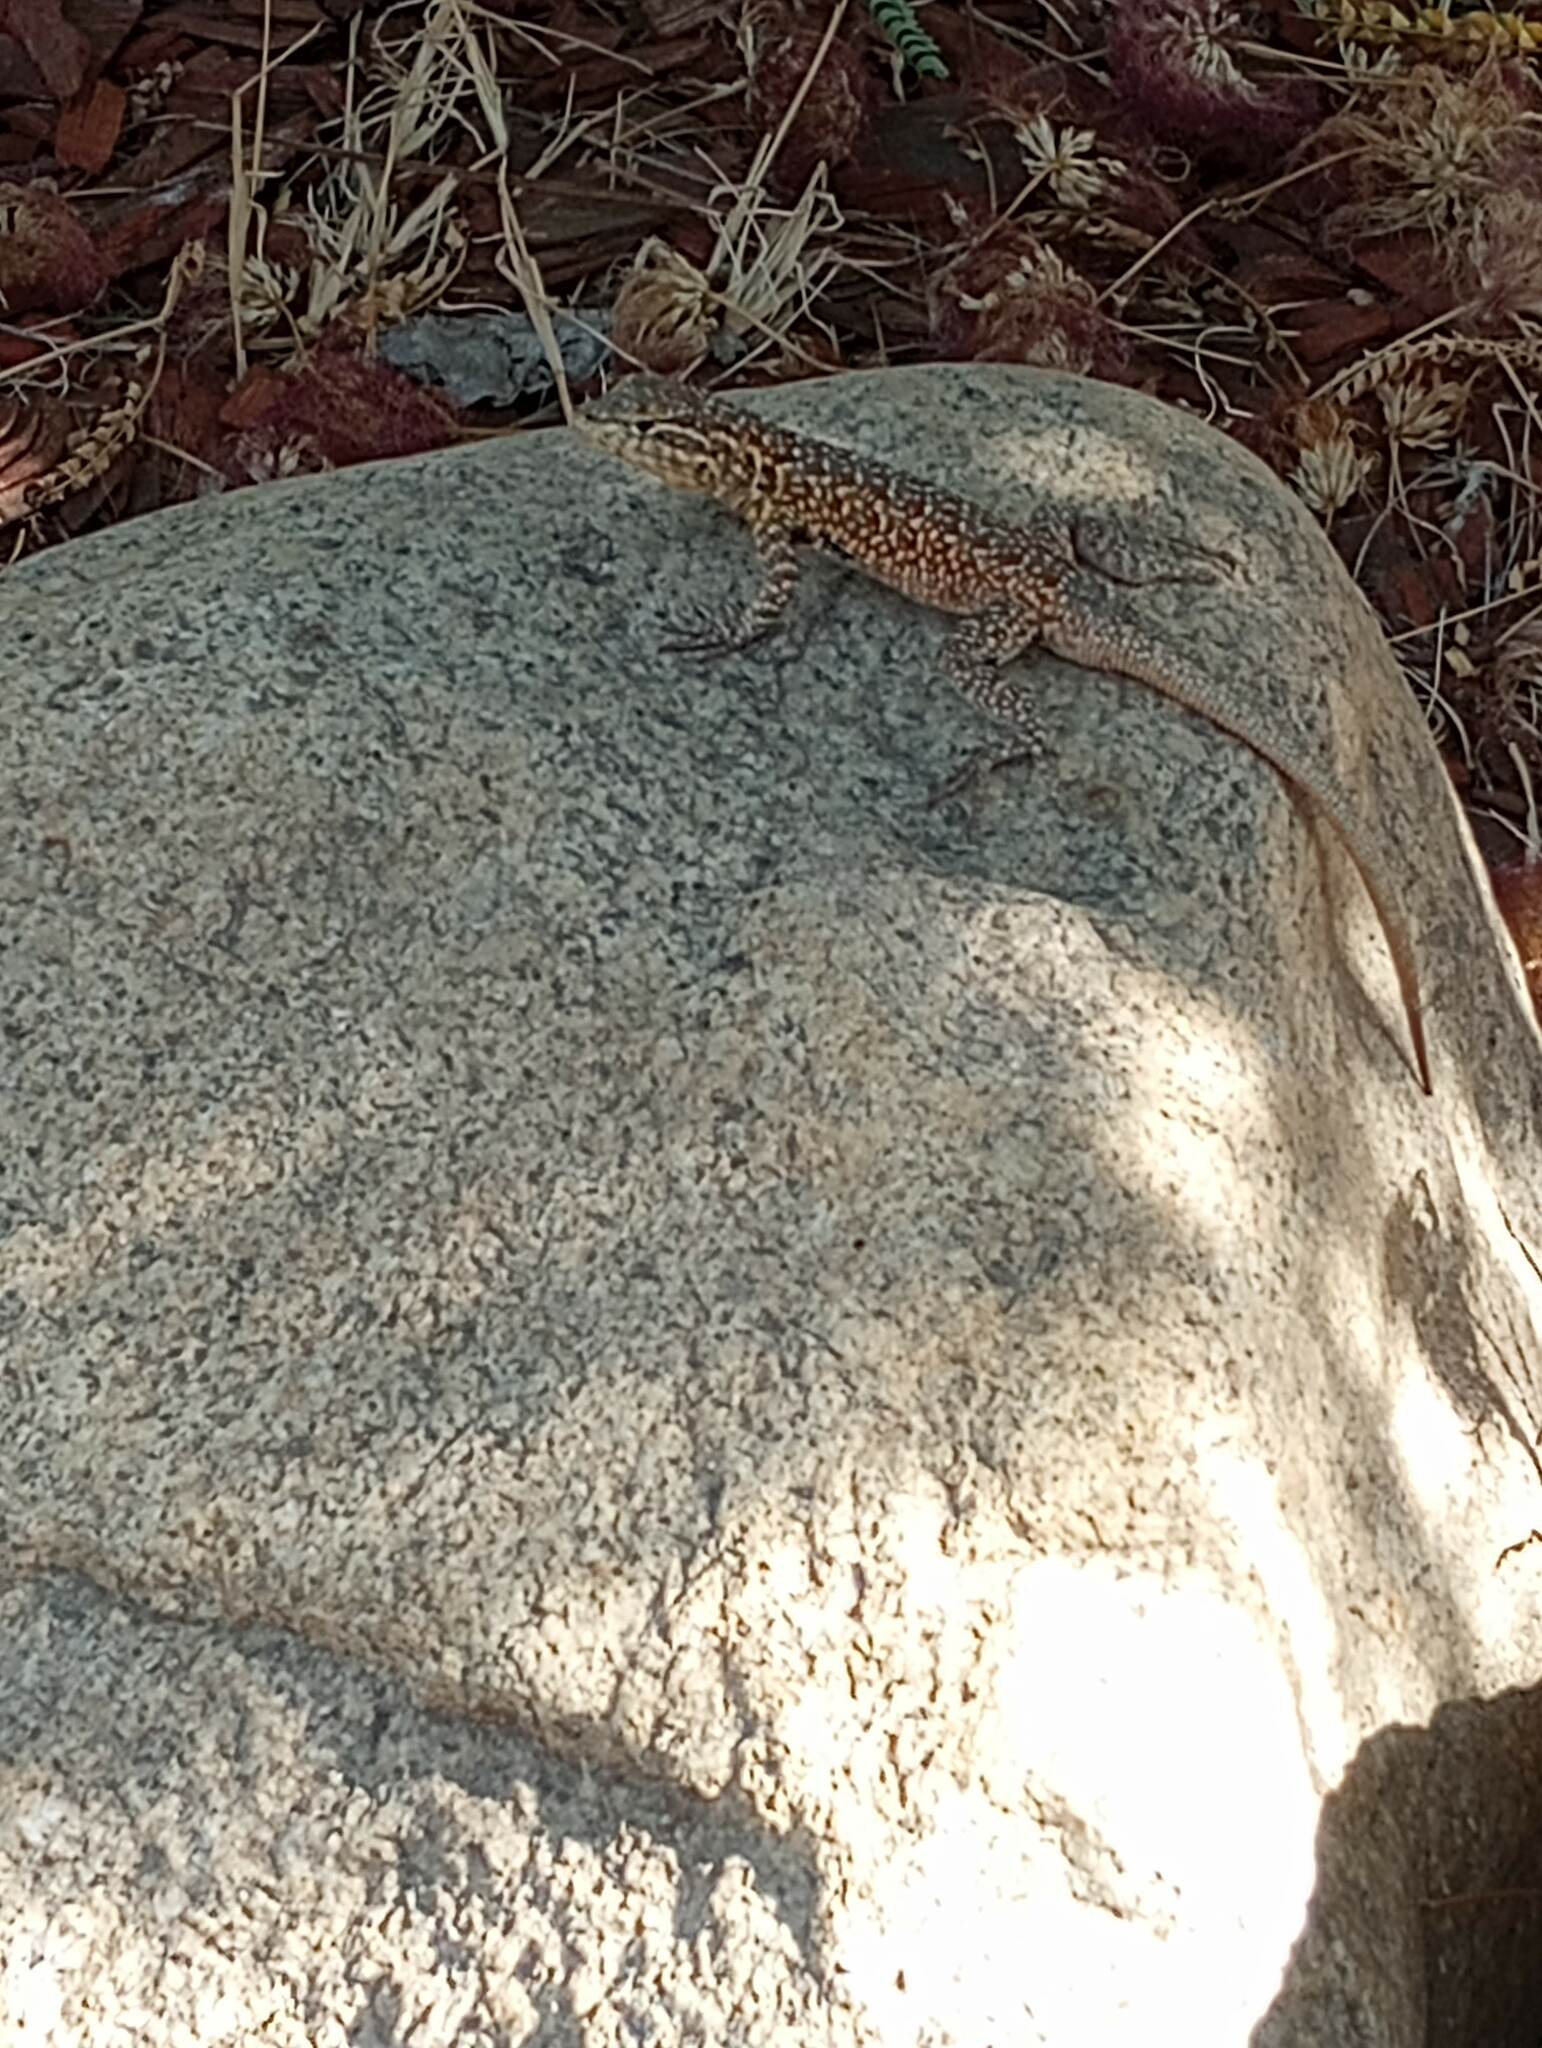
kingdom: Animalia
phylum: Chordata
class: Squamata
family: Phrynosomatidae
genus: Uta
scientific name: Uta stansburiana
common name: Side-blotched lizard
